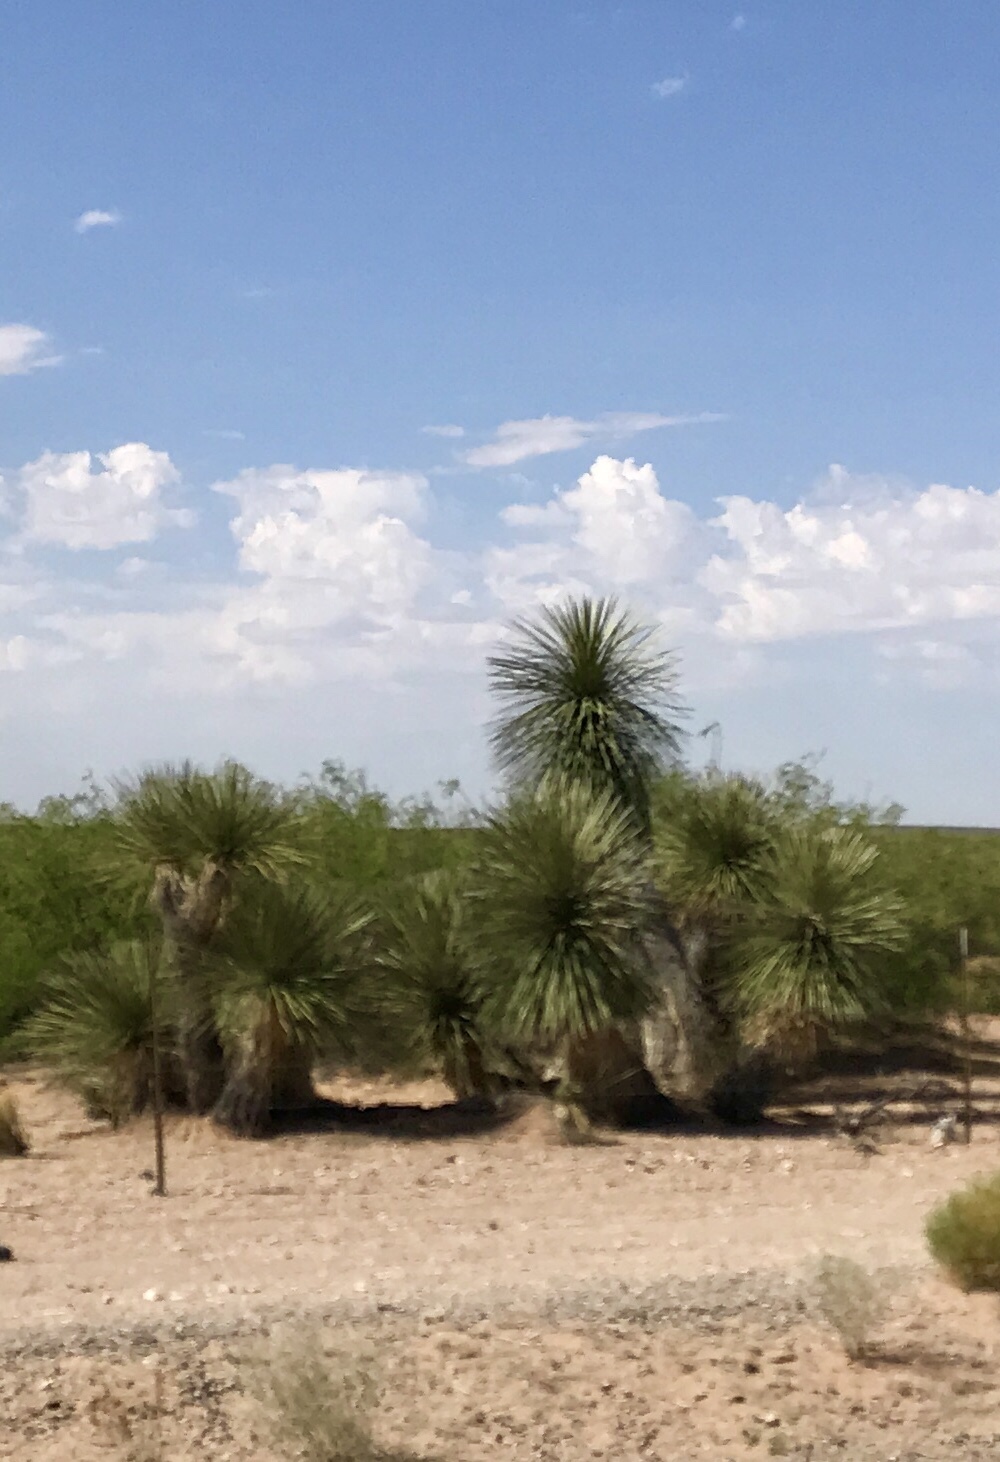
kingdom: Plantae
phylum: Tracheophyta
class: Liliopsida
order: Asparagales
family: Asparagaceae
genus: Yucca
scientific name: Yucca elata
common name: Palmella
